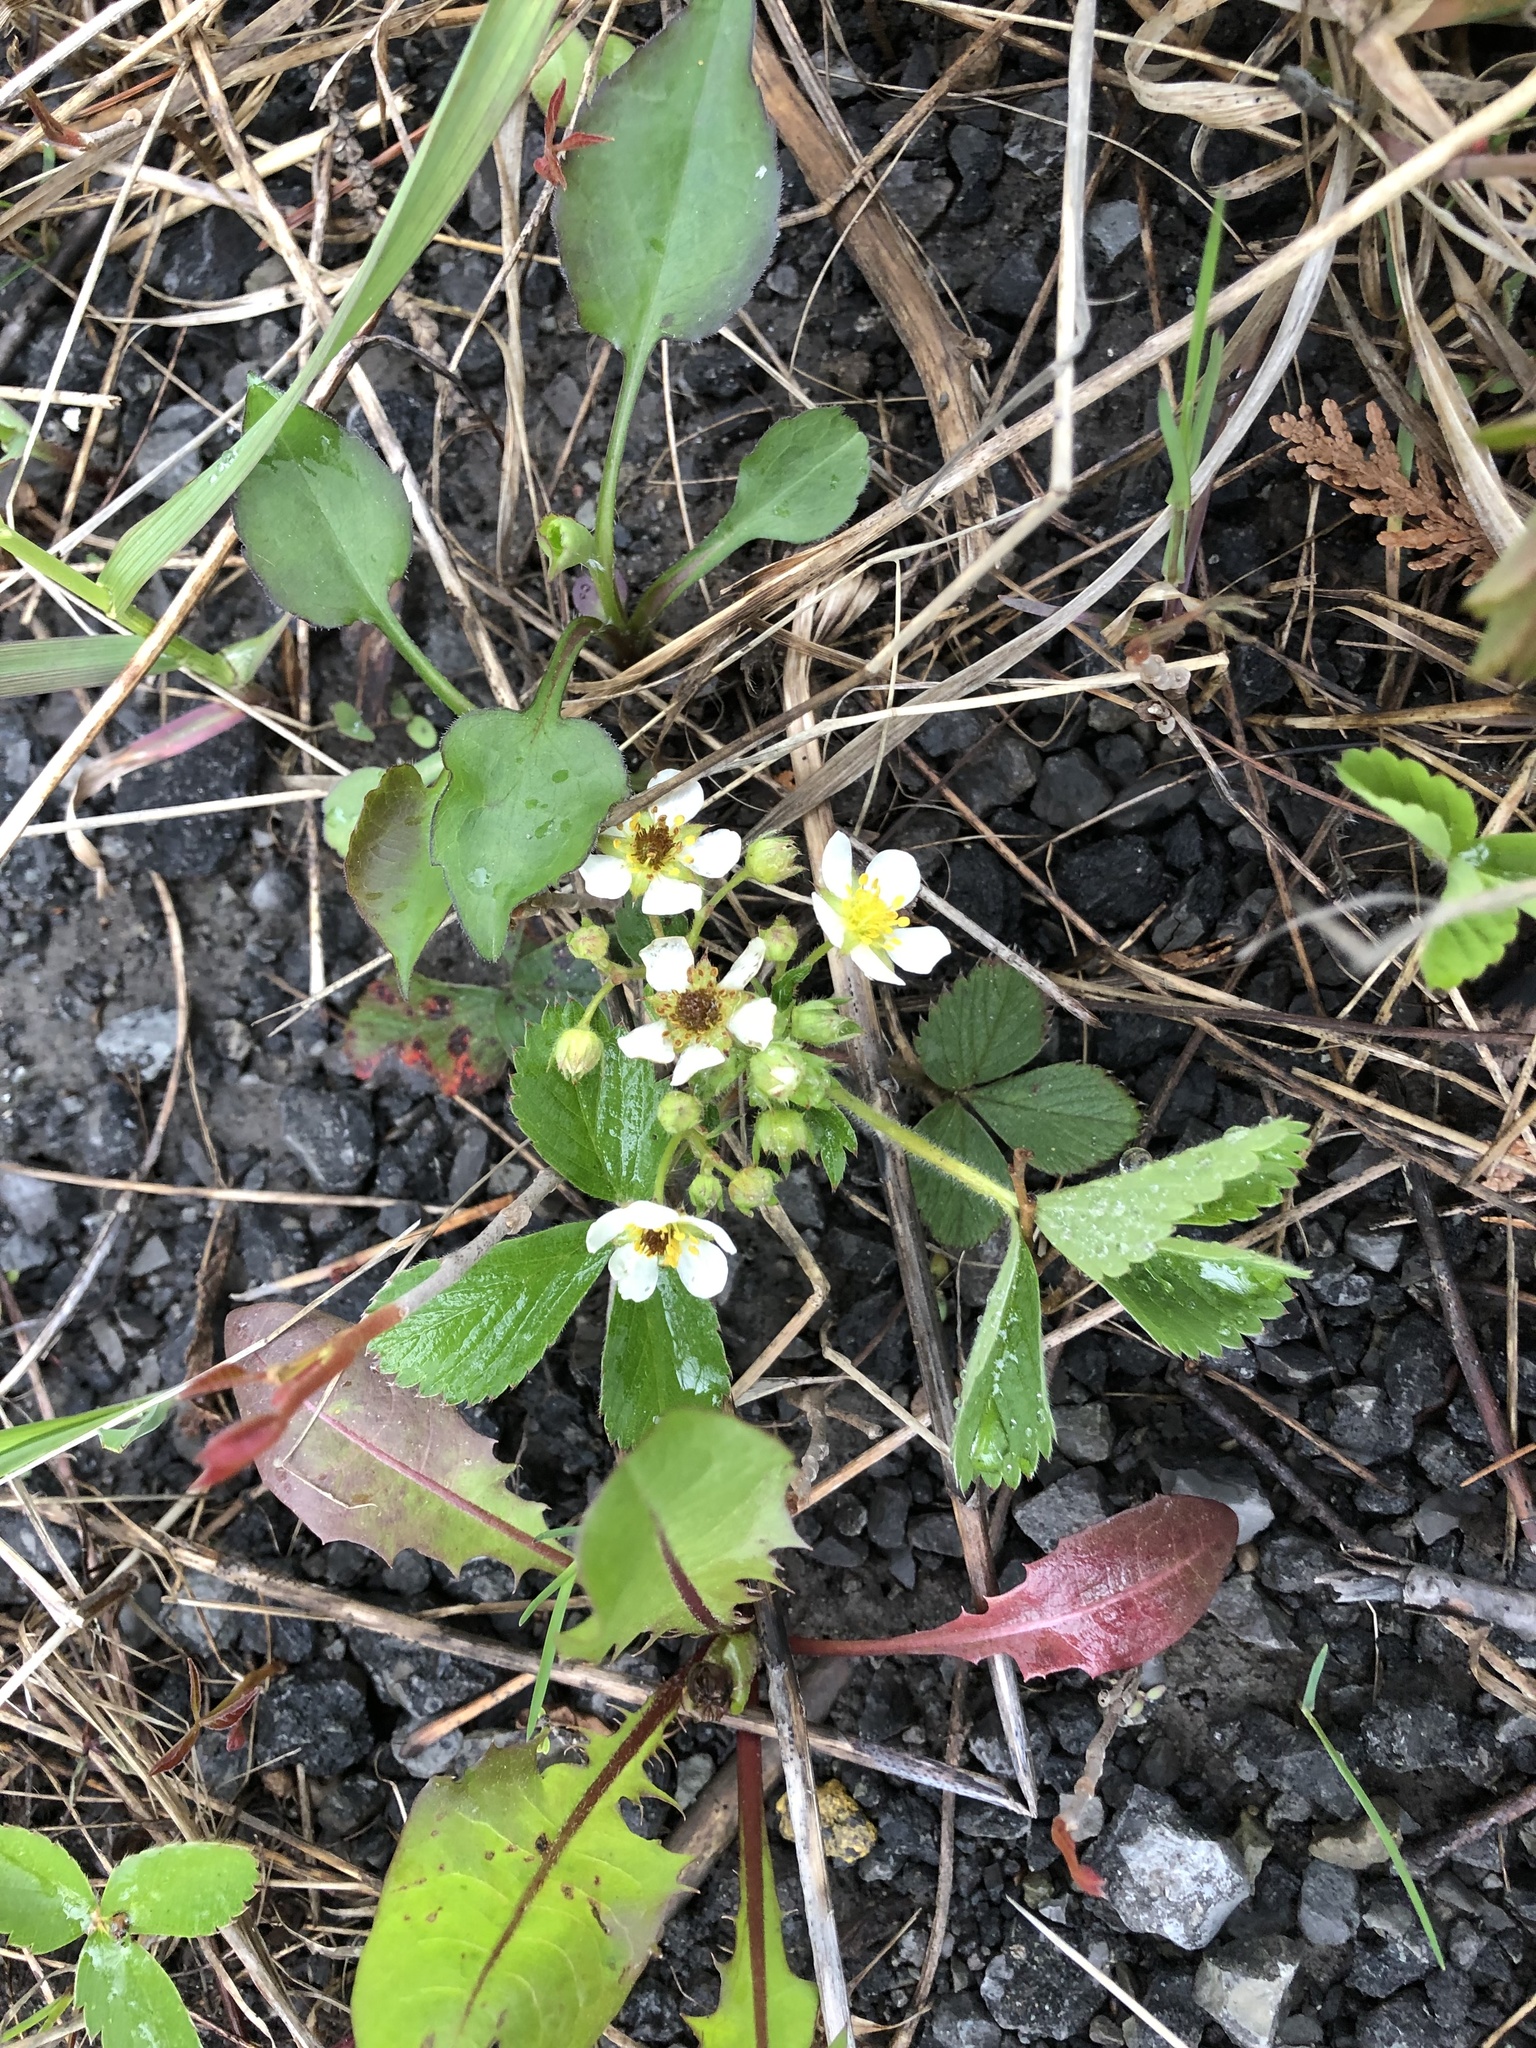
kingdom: Plantae
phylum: Tracheophyta
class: Magnoliopsida
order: Rosales
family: Rosaceae
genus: Fragaria
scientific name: Fragaria virginiana
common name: Thickleaved wild strawberry
